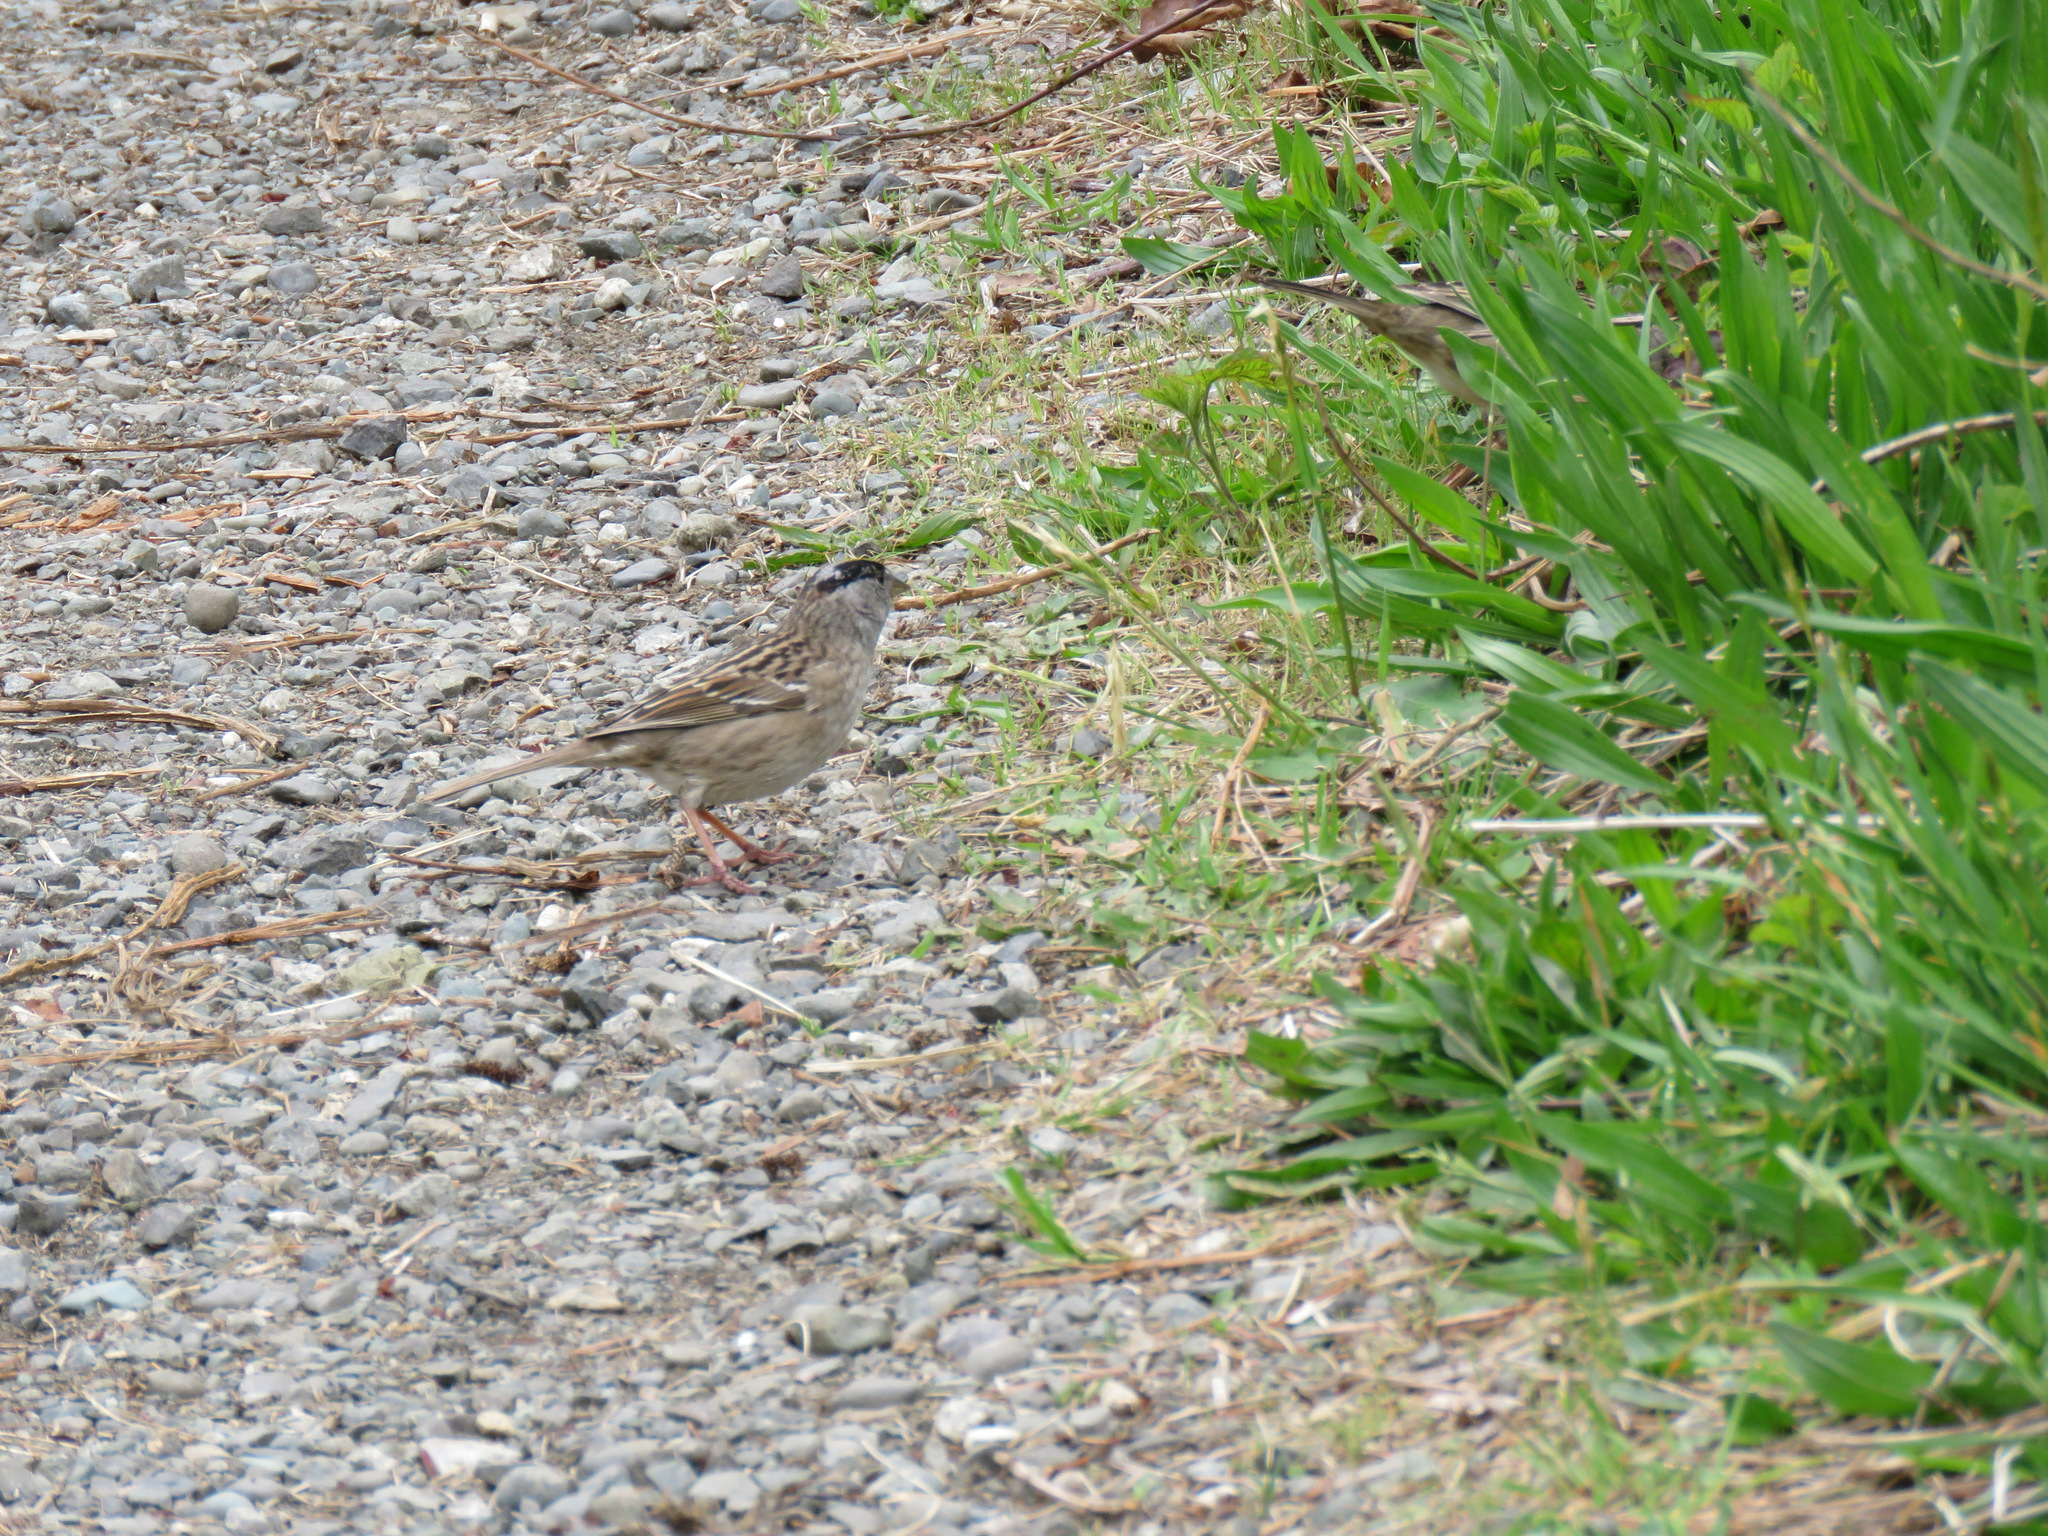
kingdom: Animalia
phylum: Chordata
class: Aves
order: Passeriformes
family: Passerellidae
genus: Zonotrichia
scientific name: Zonotrichia atricapilla
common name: Golden-crowned sparrow
